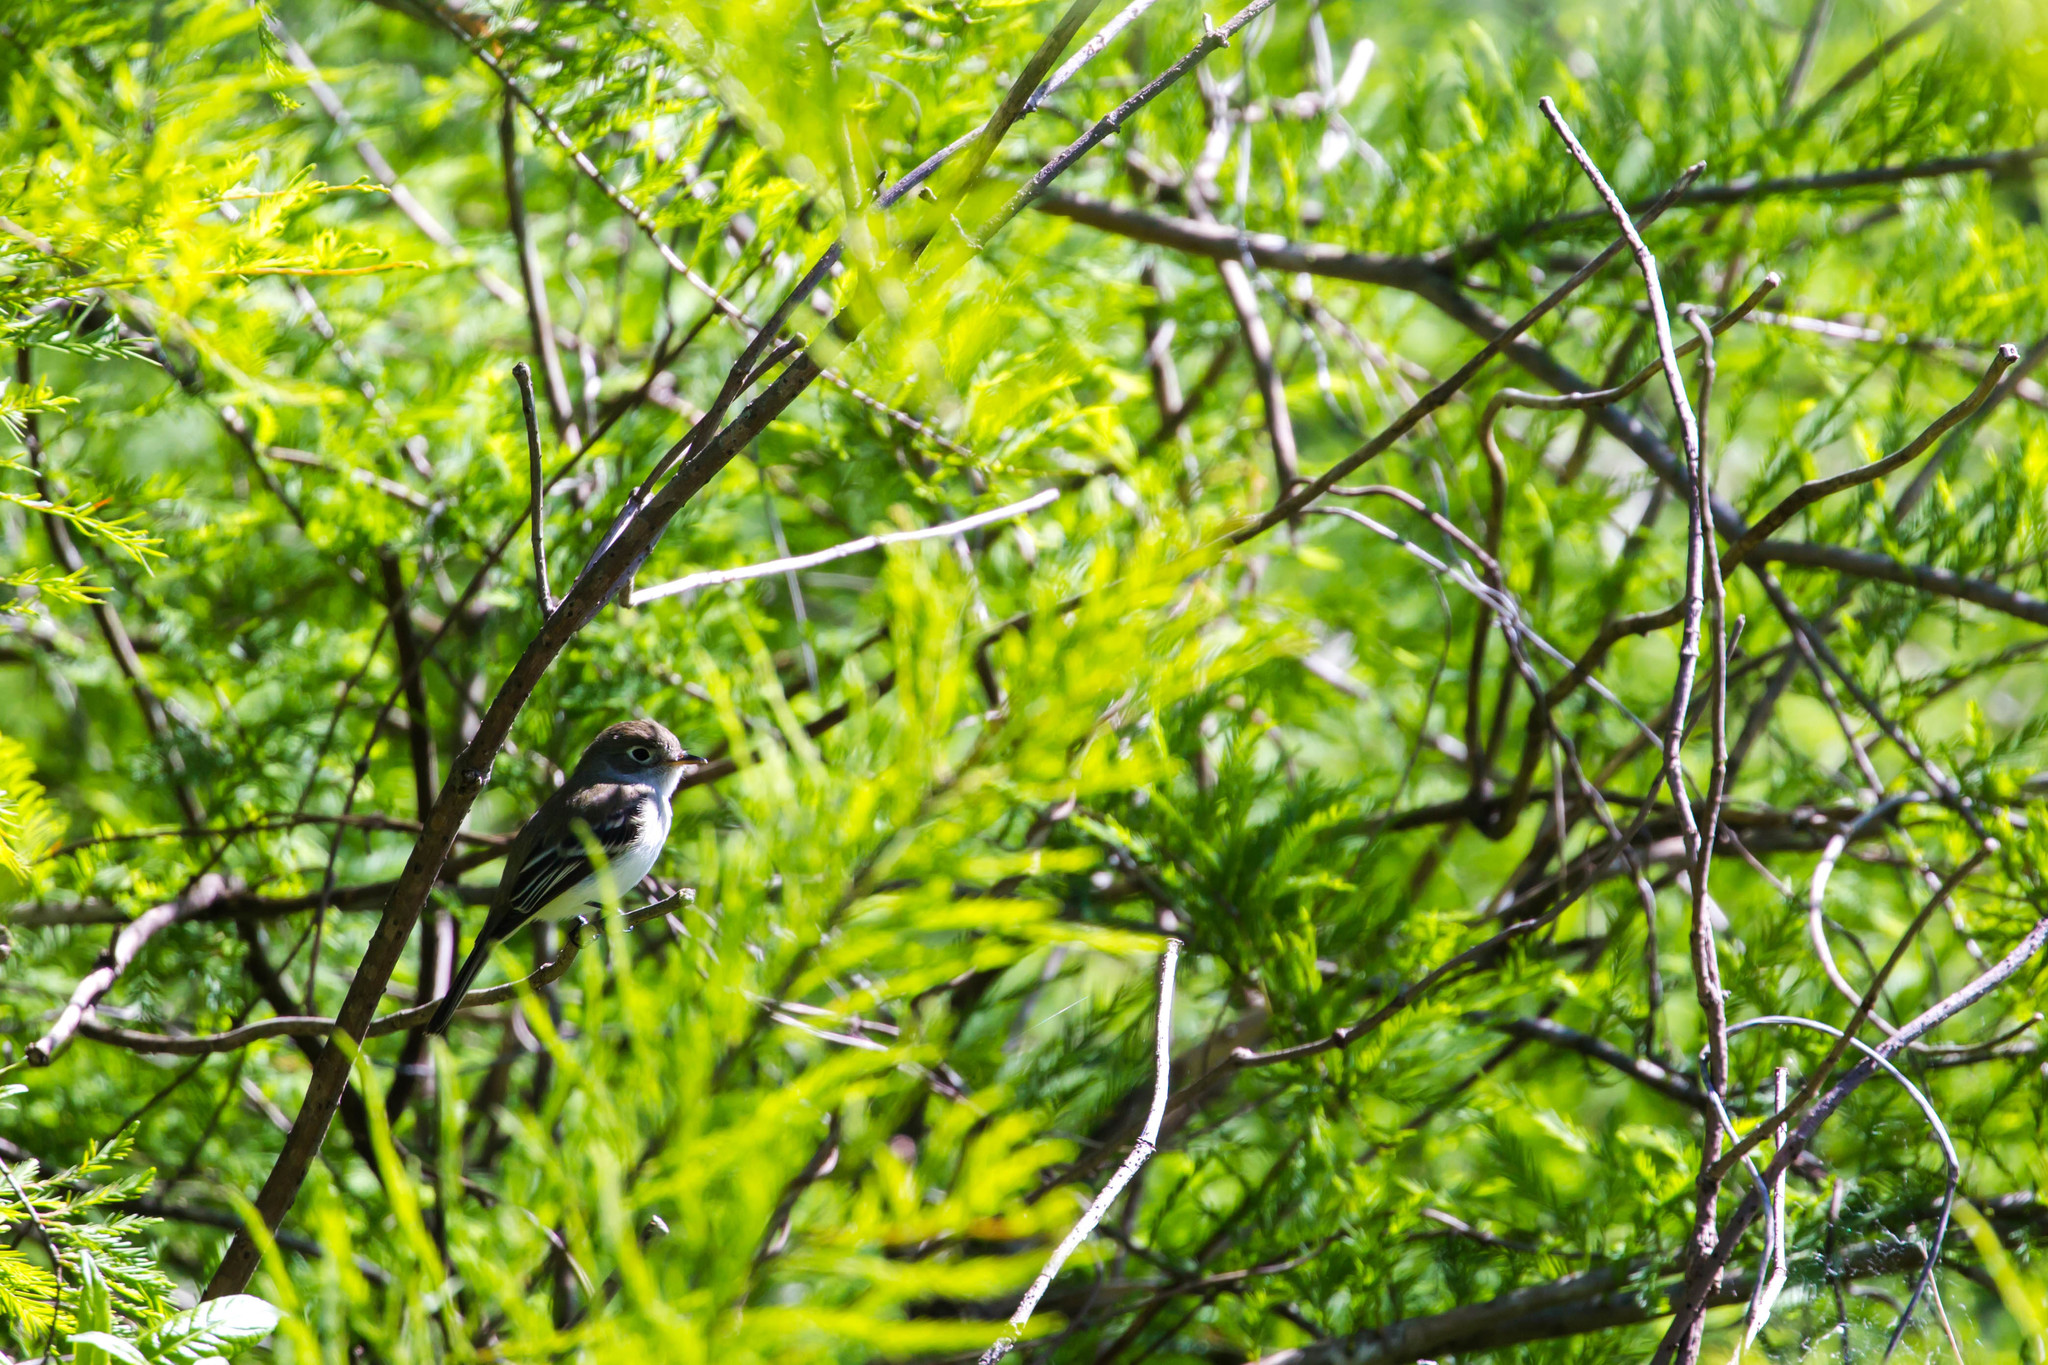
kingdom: Animalia
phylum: Chordata
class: Aves
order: Passeriformes
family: Tyrannidae
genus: Empidonax
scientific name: Empidonax minimus
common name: Least flycatcher
